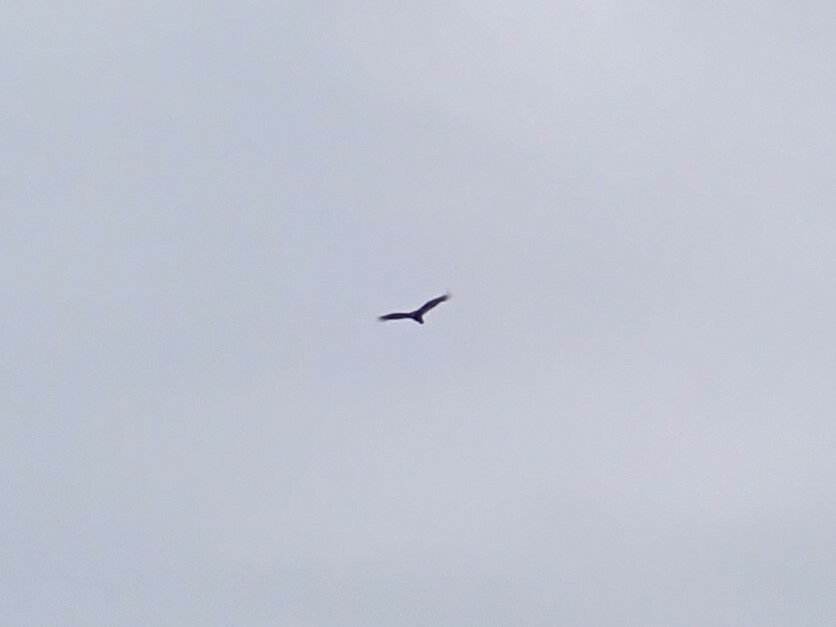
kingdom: Animalia
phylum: Chordata
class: Aves
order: Accipitriformes
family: Cathartidae
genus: Cathartes
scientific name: Cathartes aura
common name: Turkey vulture
